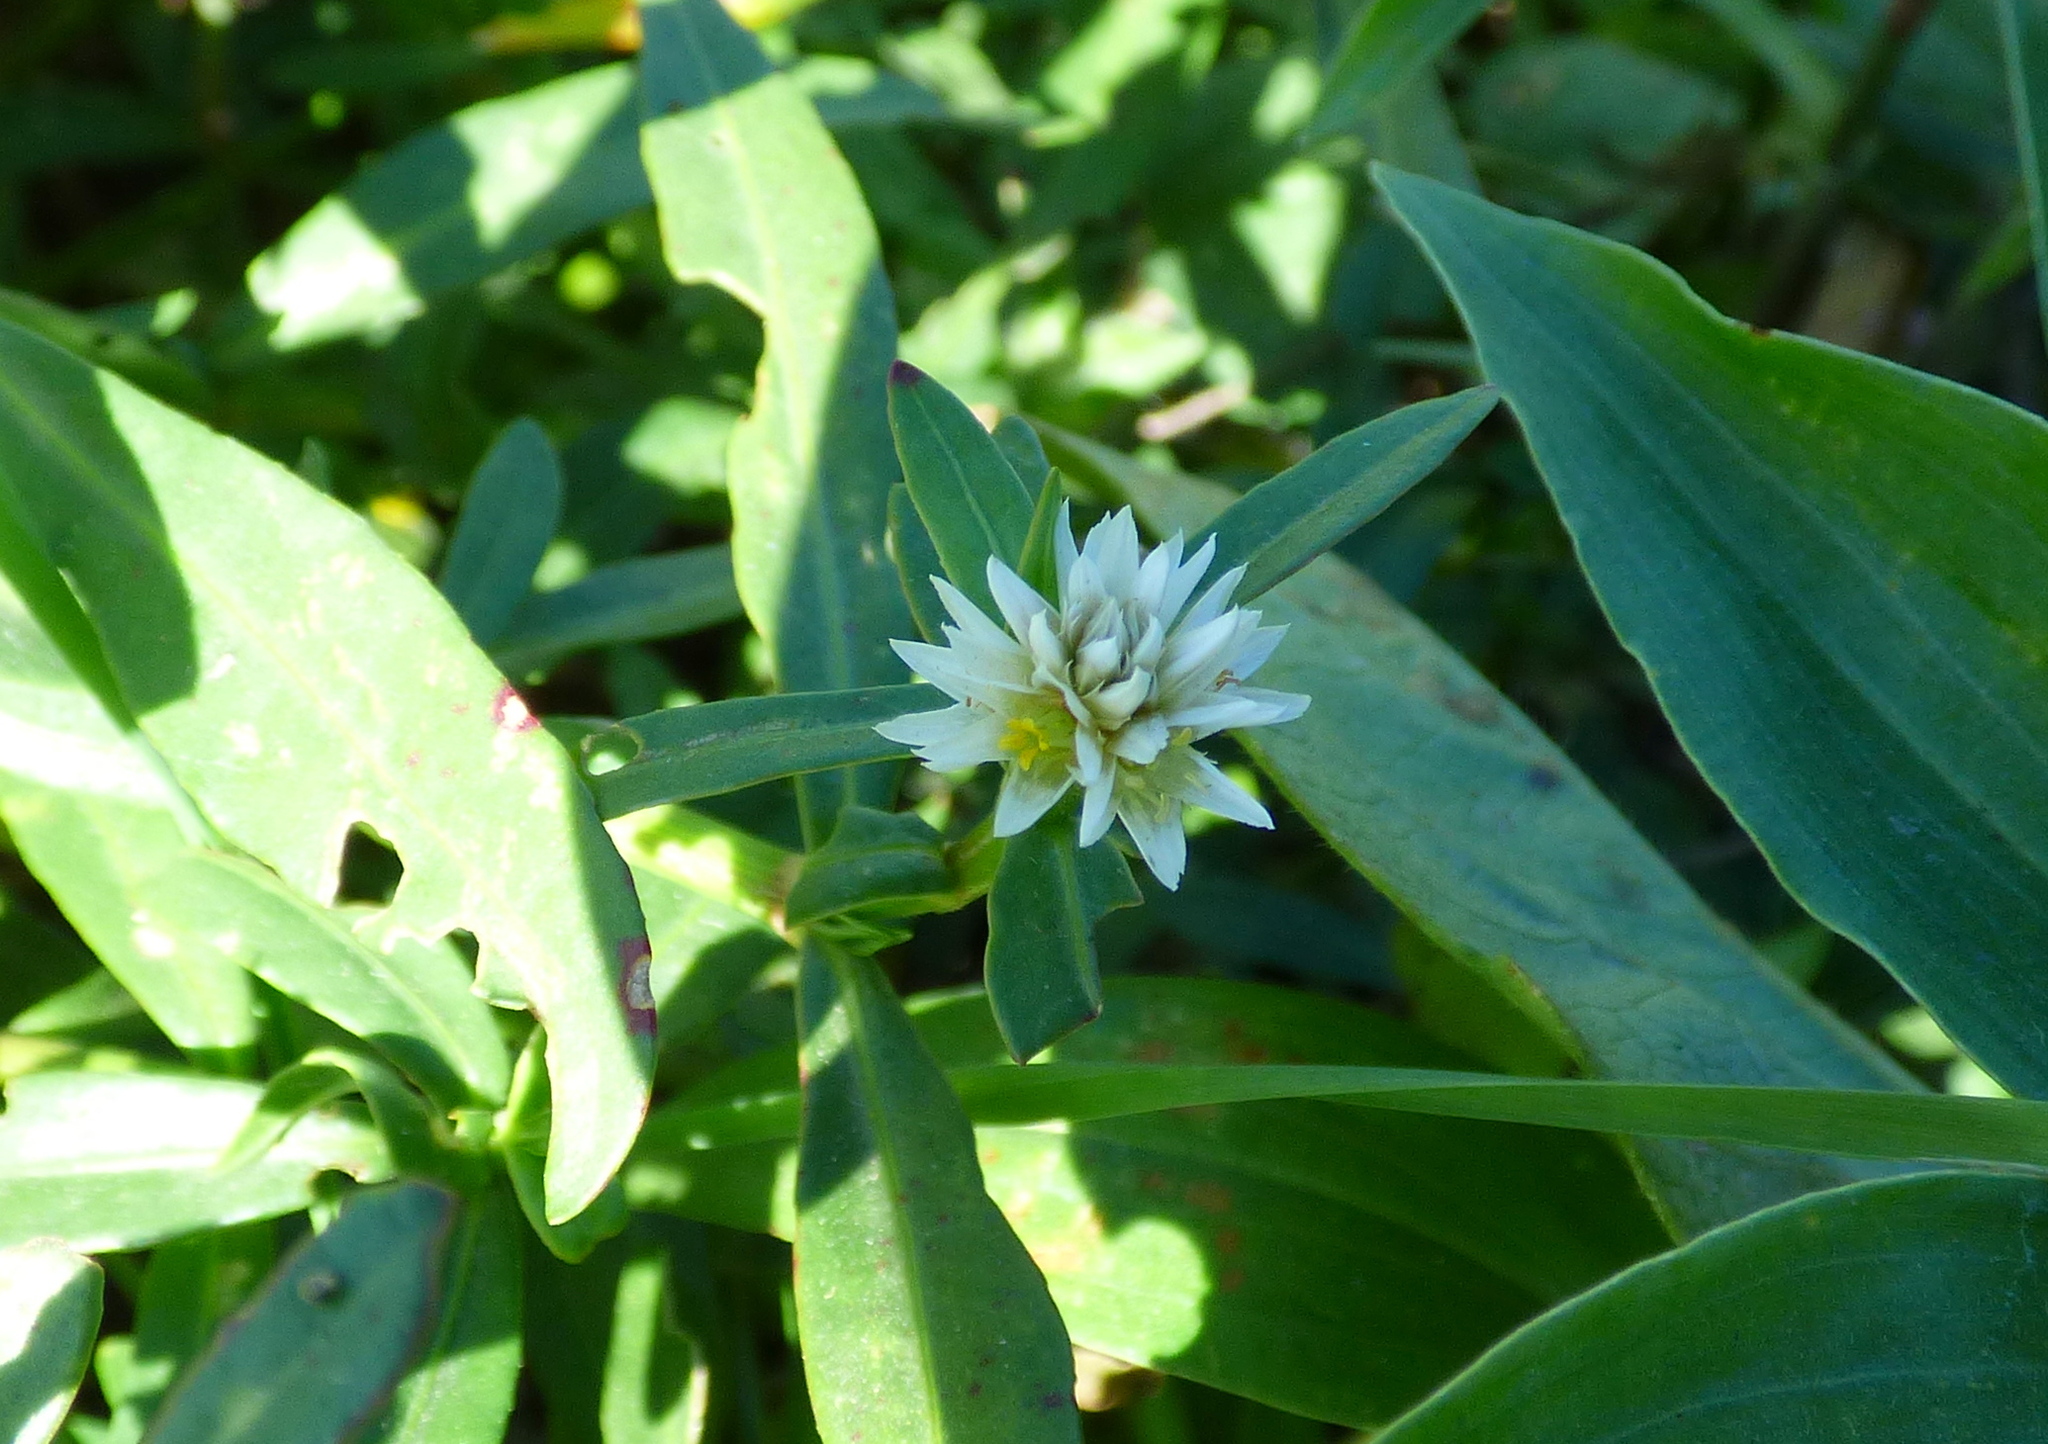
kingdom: Plantae
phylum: Tracheophyta
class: Magnoliopsida
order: Caryophyllales
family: Amaranthaceae
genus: Alternanthera
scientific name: Alternanthera philoxeroides
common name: Alligatorweed
